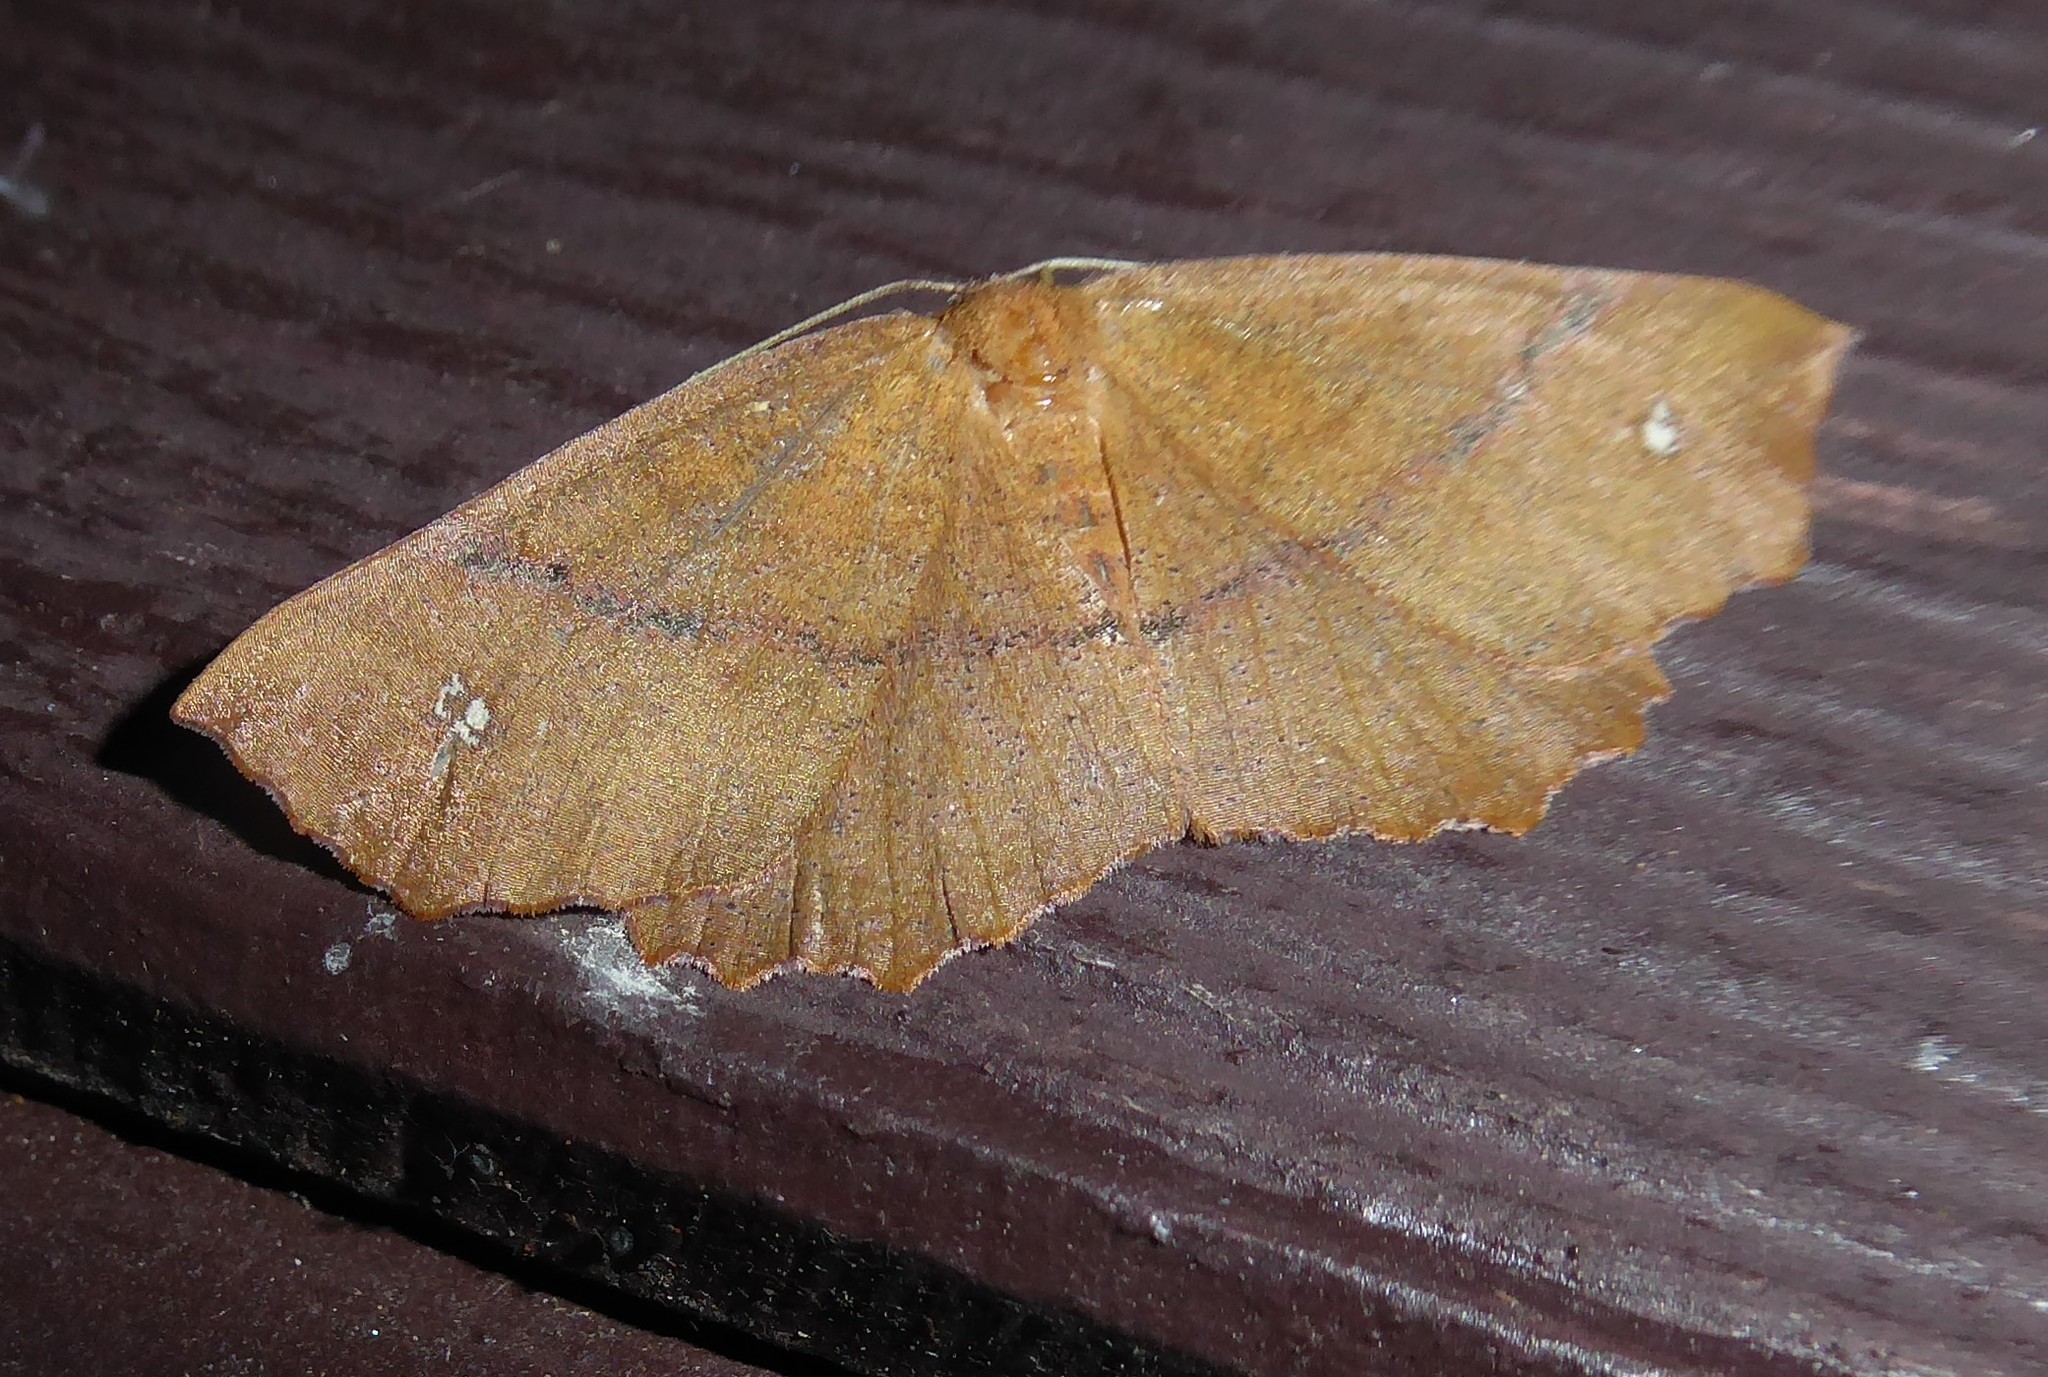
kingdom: Animalia
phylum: Arthropoda
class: Insecta
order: Lepidoptera
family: Geometridae
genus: Xyridacma
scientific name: Xyridacma ustaria
